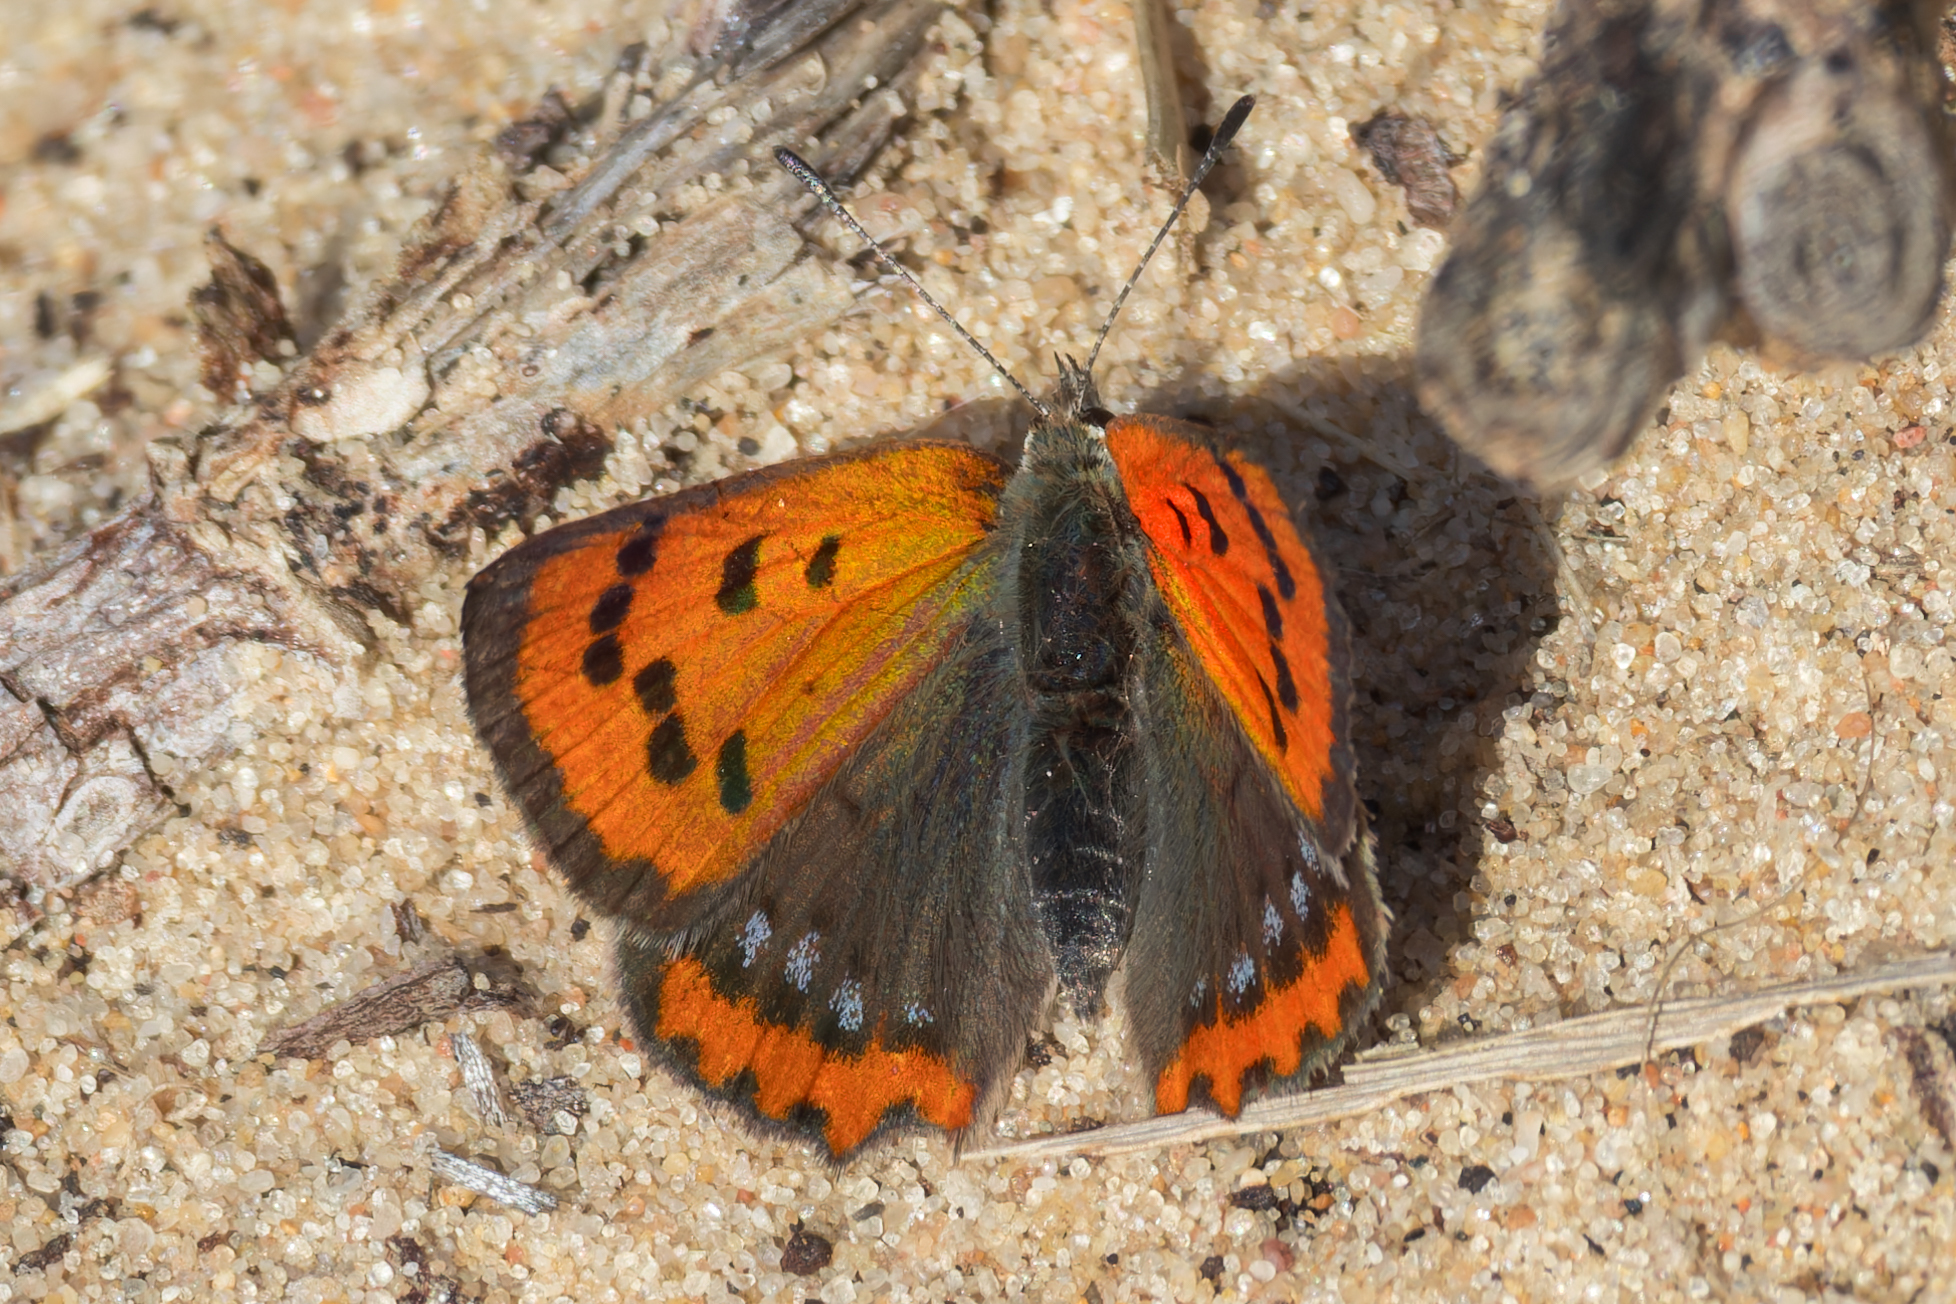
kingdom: Animalia
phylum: Arthropoda
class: Insecta
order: Lepidoptera
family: Lycaenidae
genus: Lycaena
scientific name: Lycaena phlaeas
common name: Small copper
